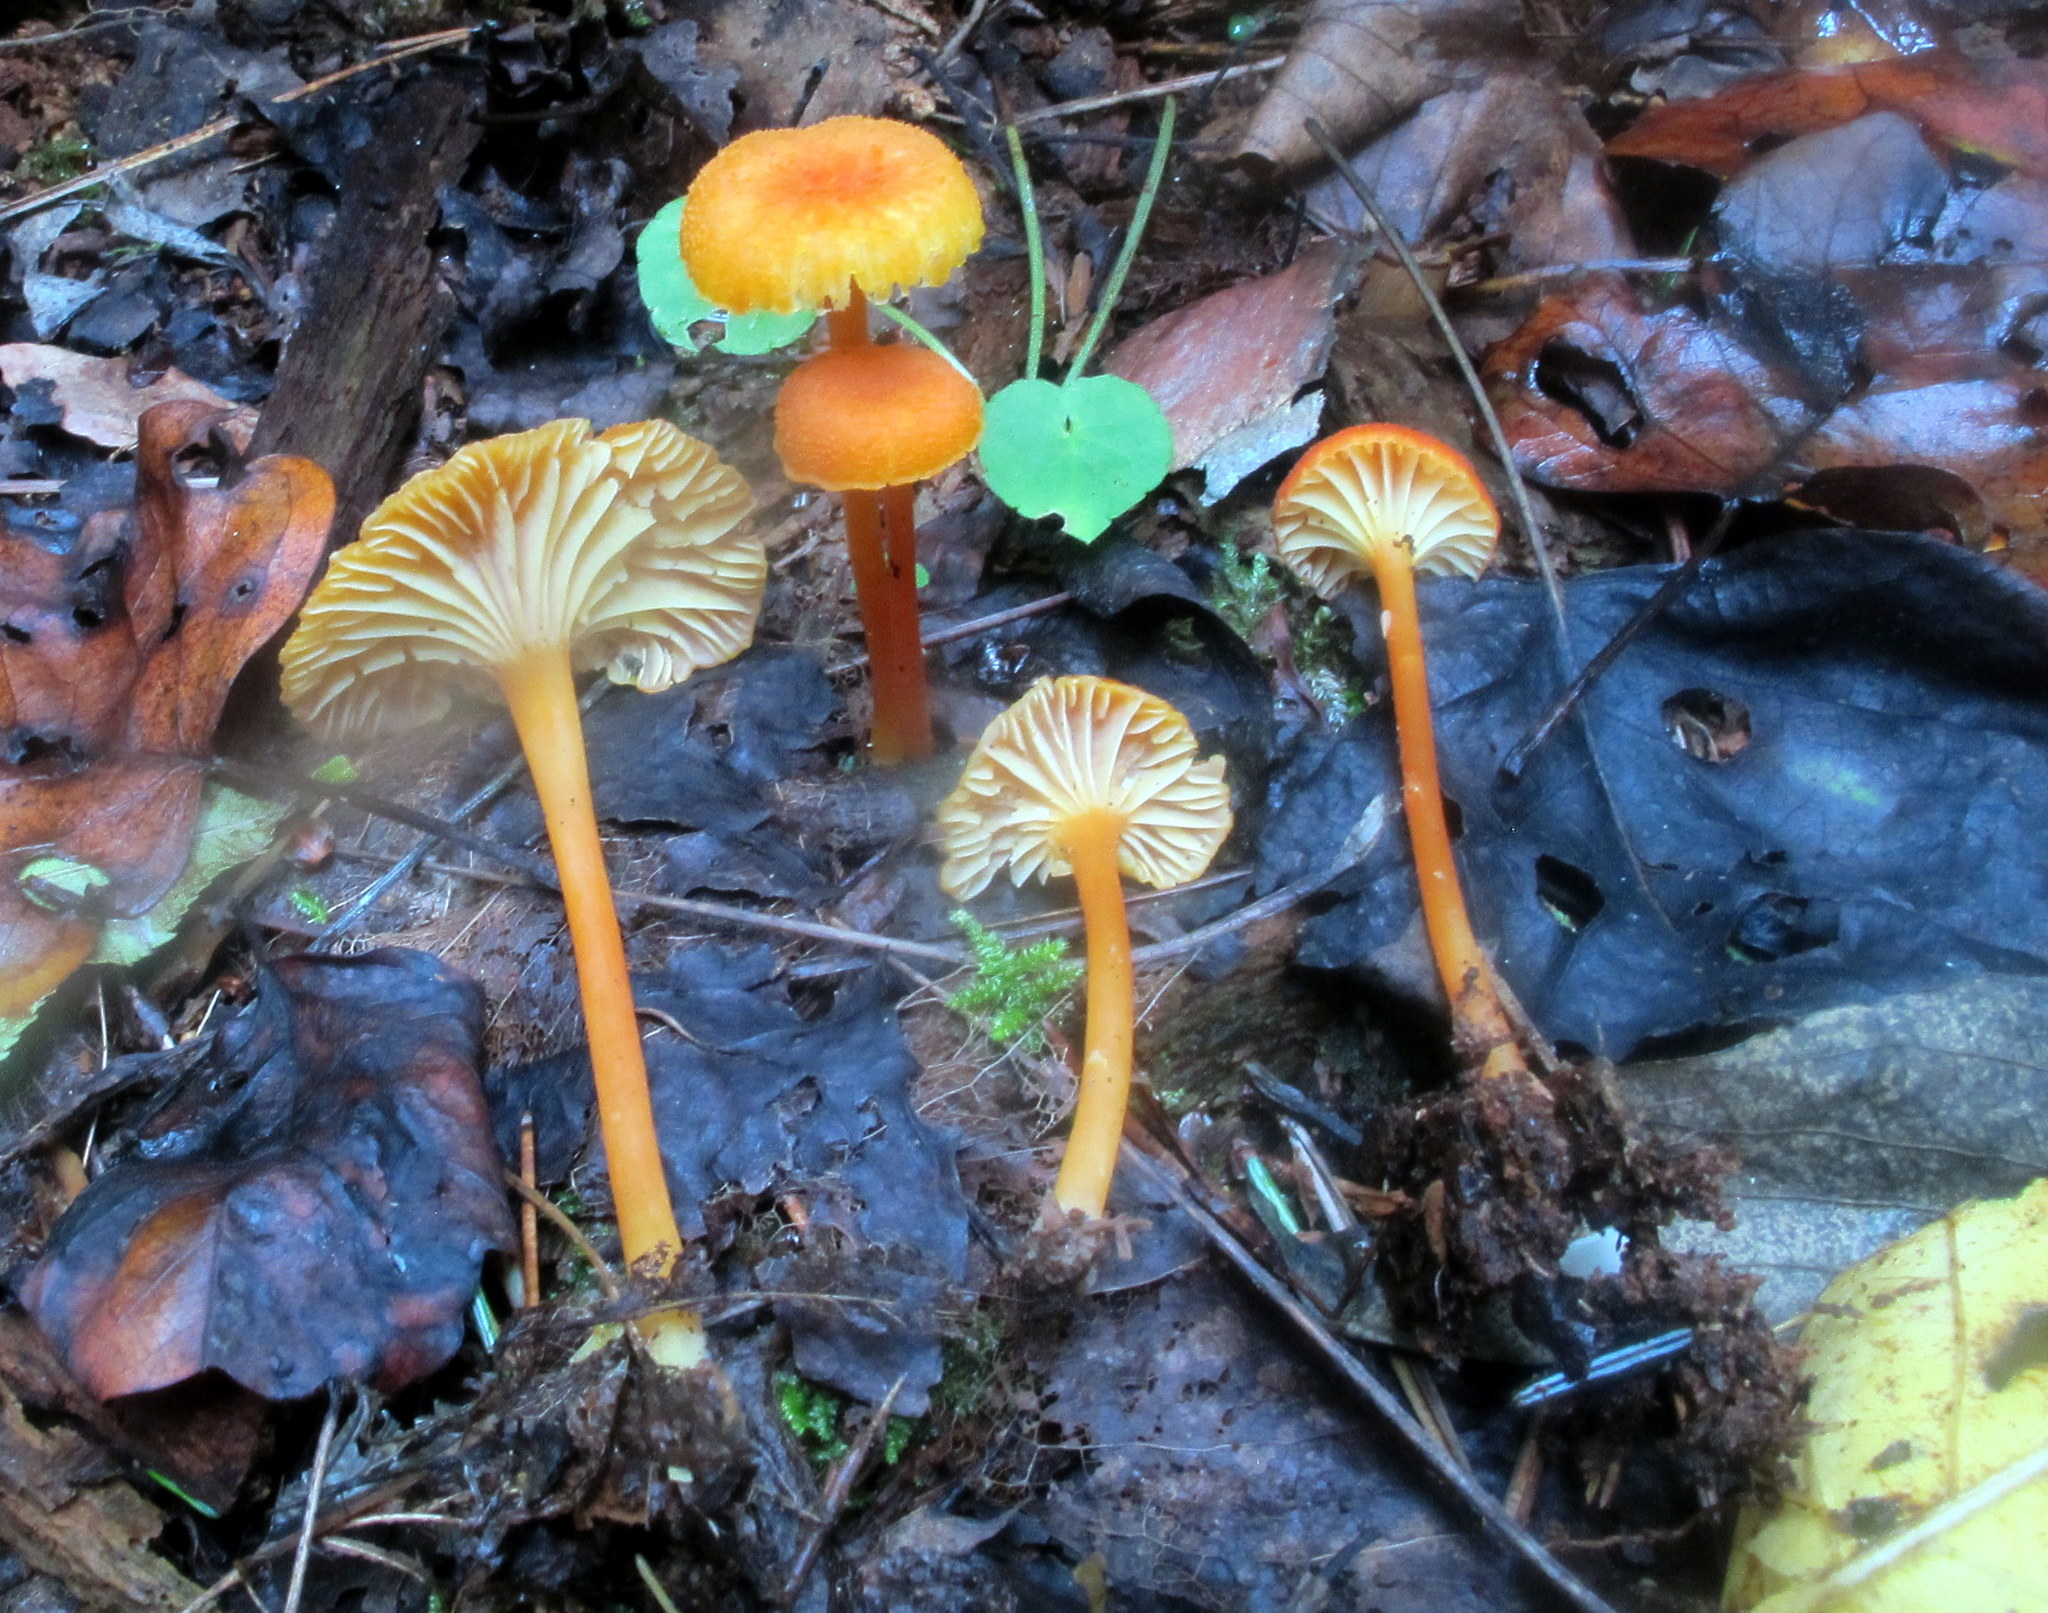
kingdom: Fungi
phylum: Basidiomycota
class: Agaricomycetes
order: Agaricales
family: Hygrophoraceae
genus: Hygrocybe
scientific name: Hygrocybe cantharellus
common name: Goblet waxcap
